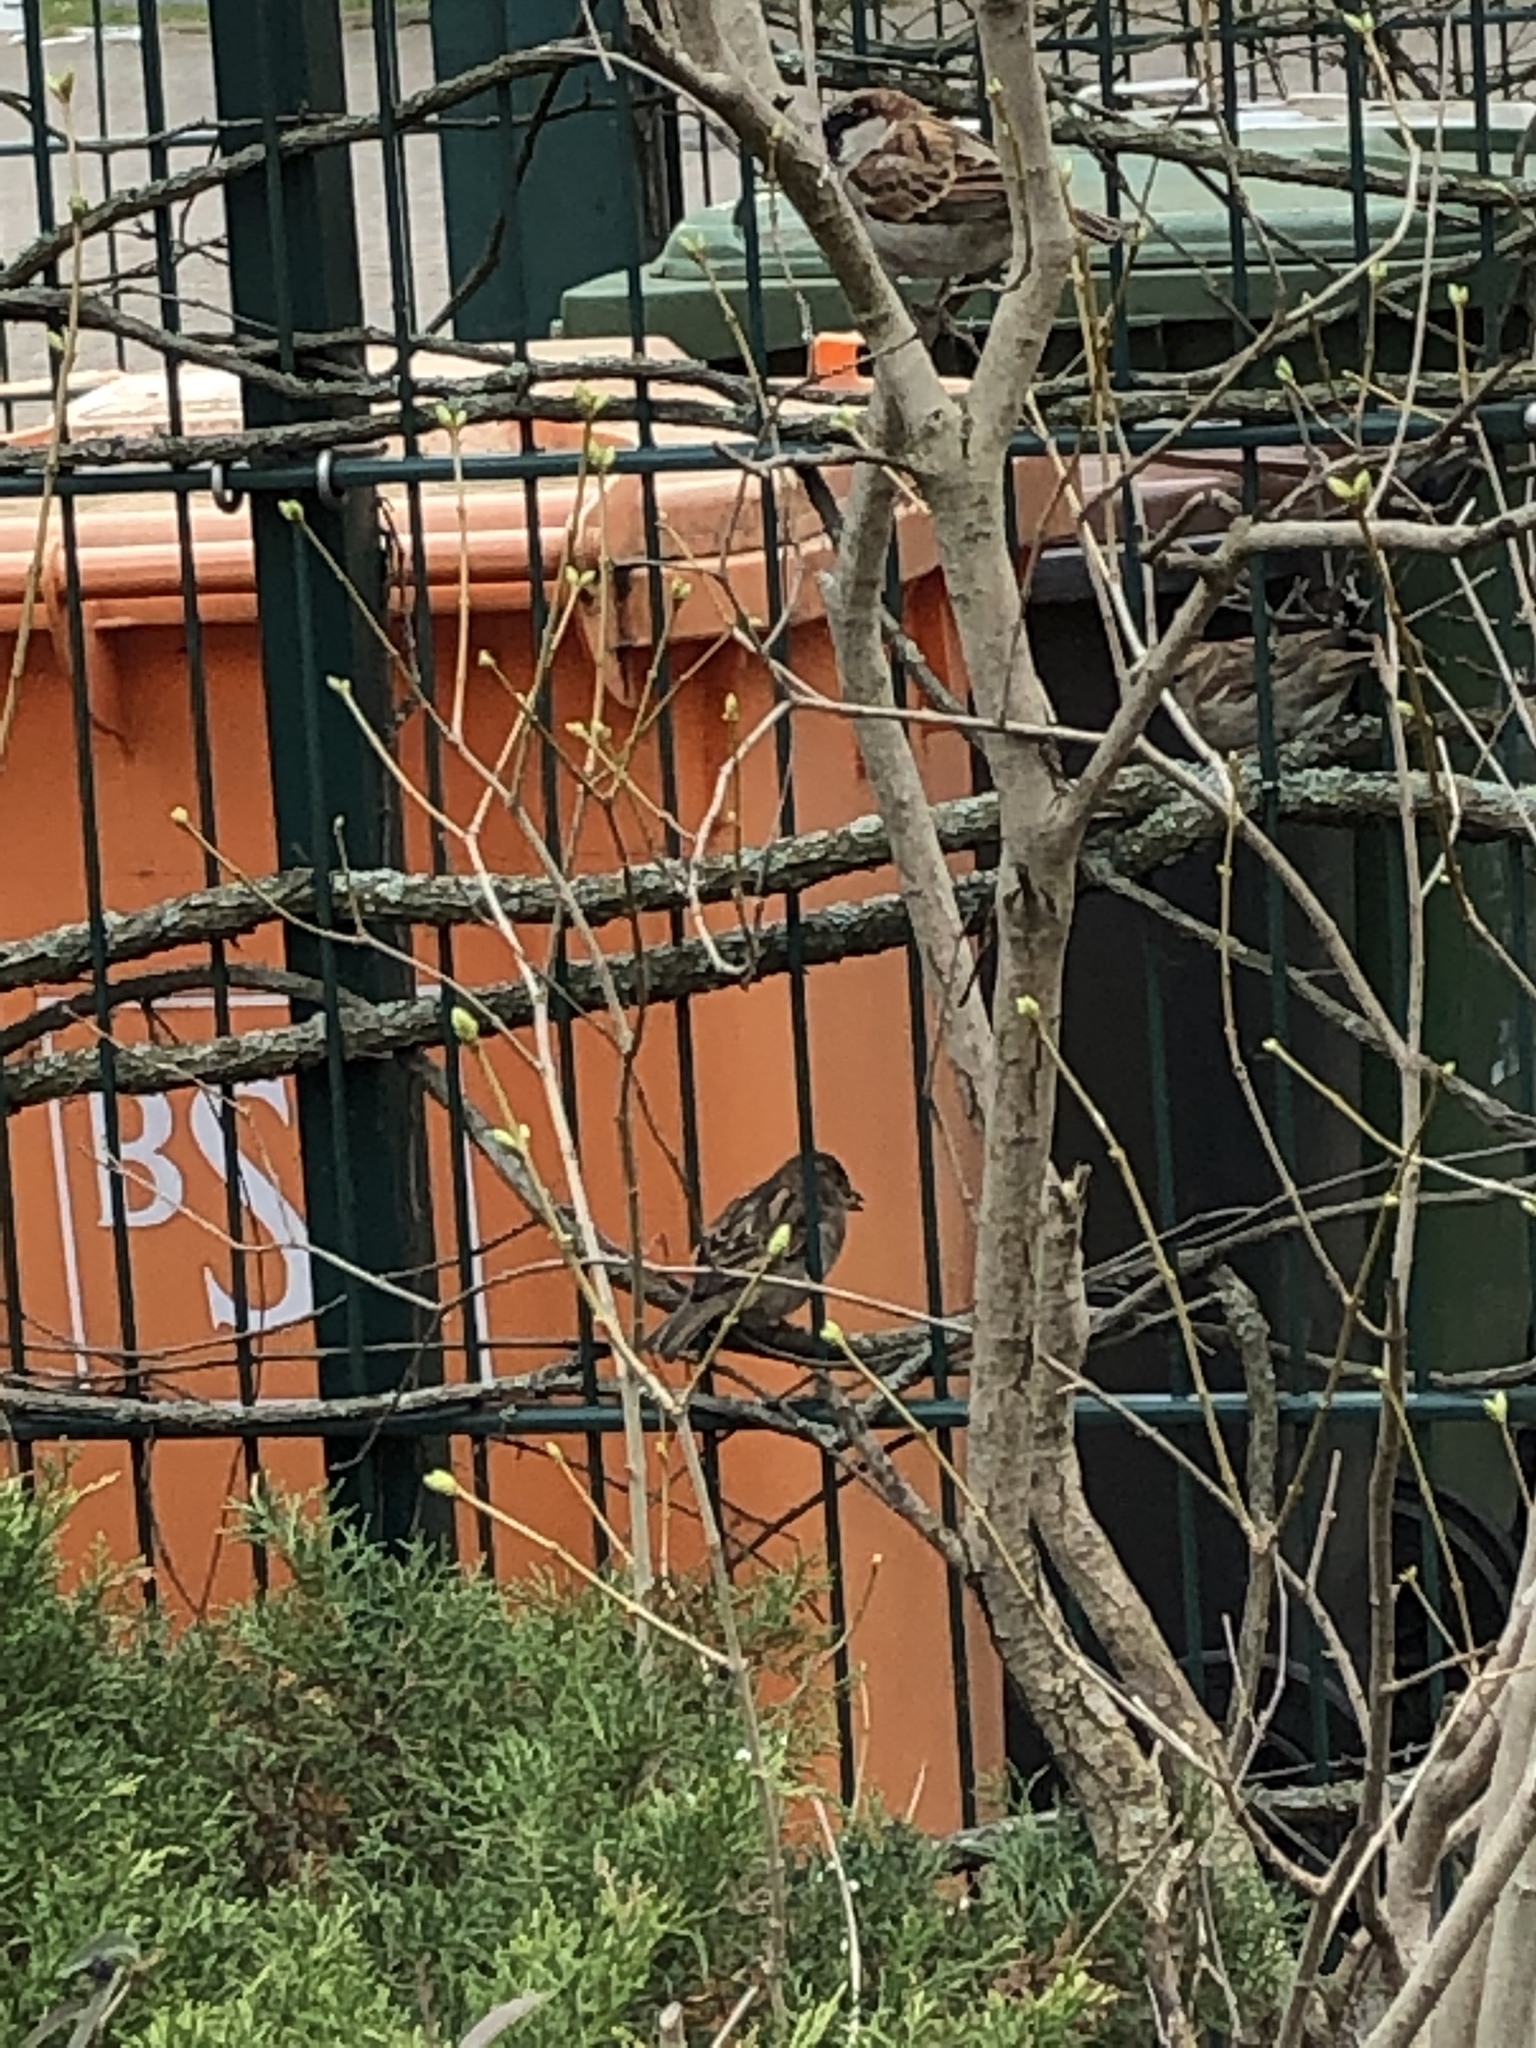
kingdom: Animalia
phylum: Chordata
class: Aves
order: Passeriformes
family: Passeridae
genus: Passer
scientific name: Passer domesticus
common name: House sparrow
